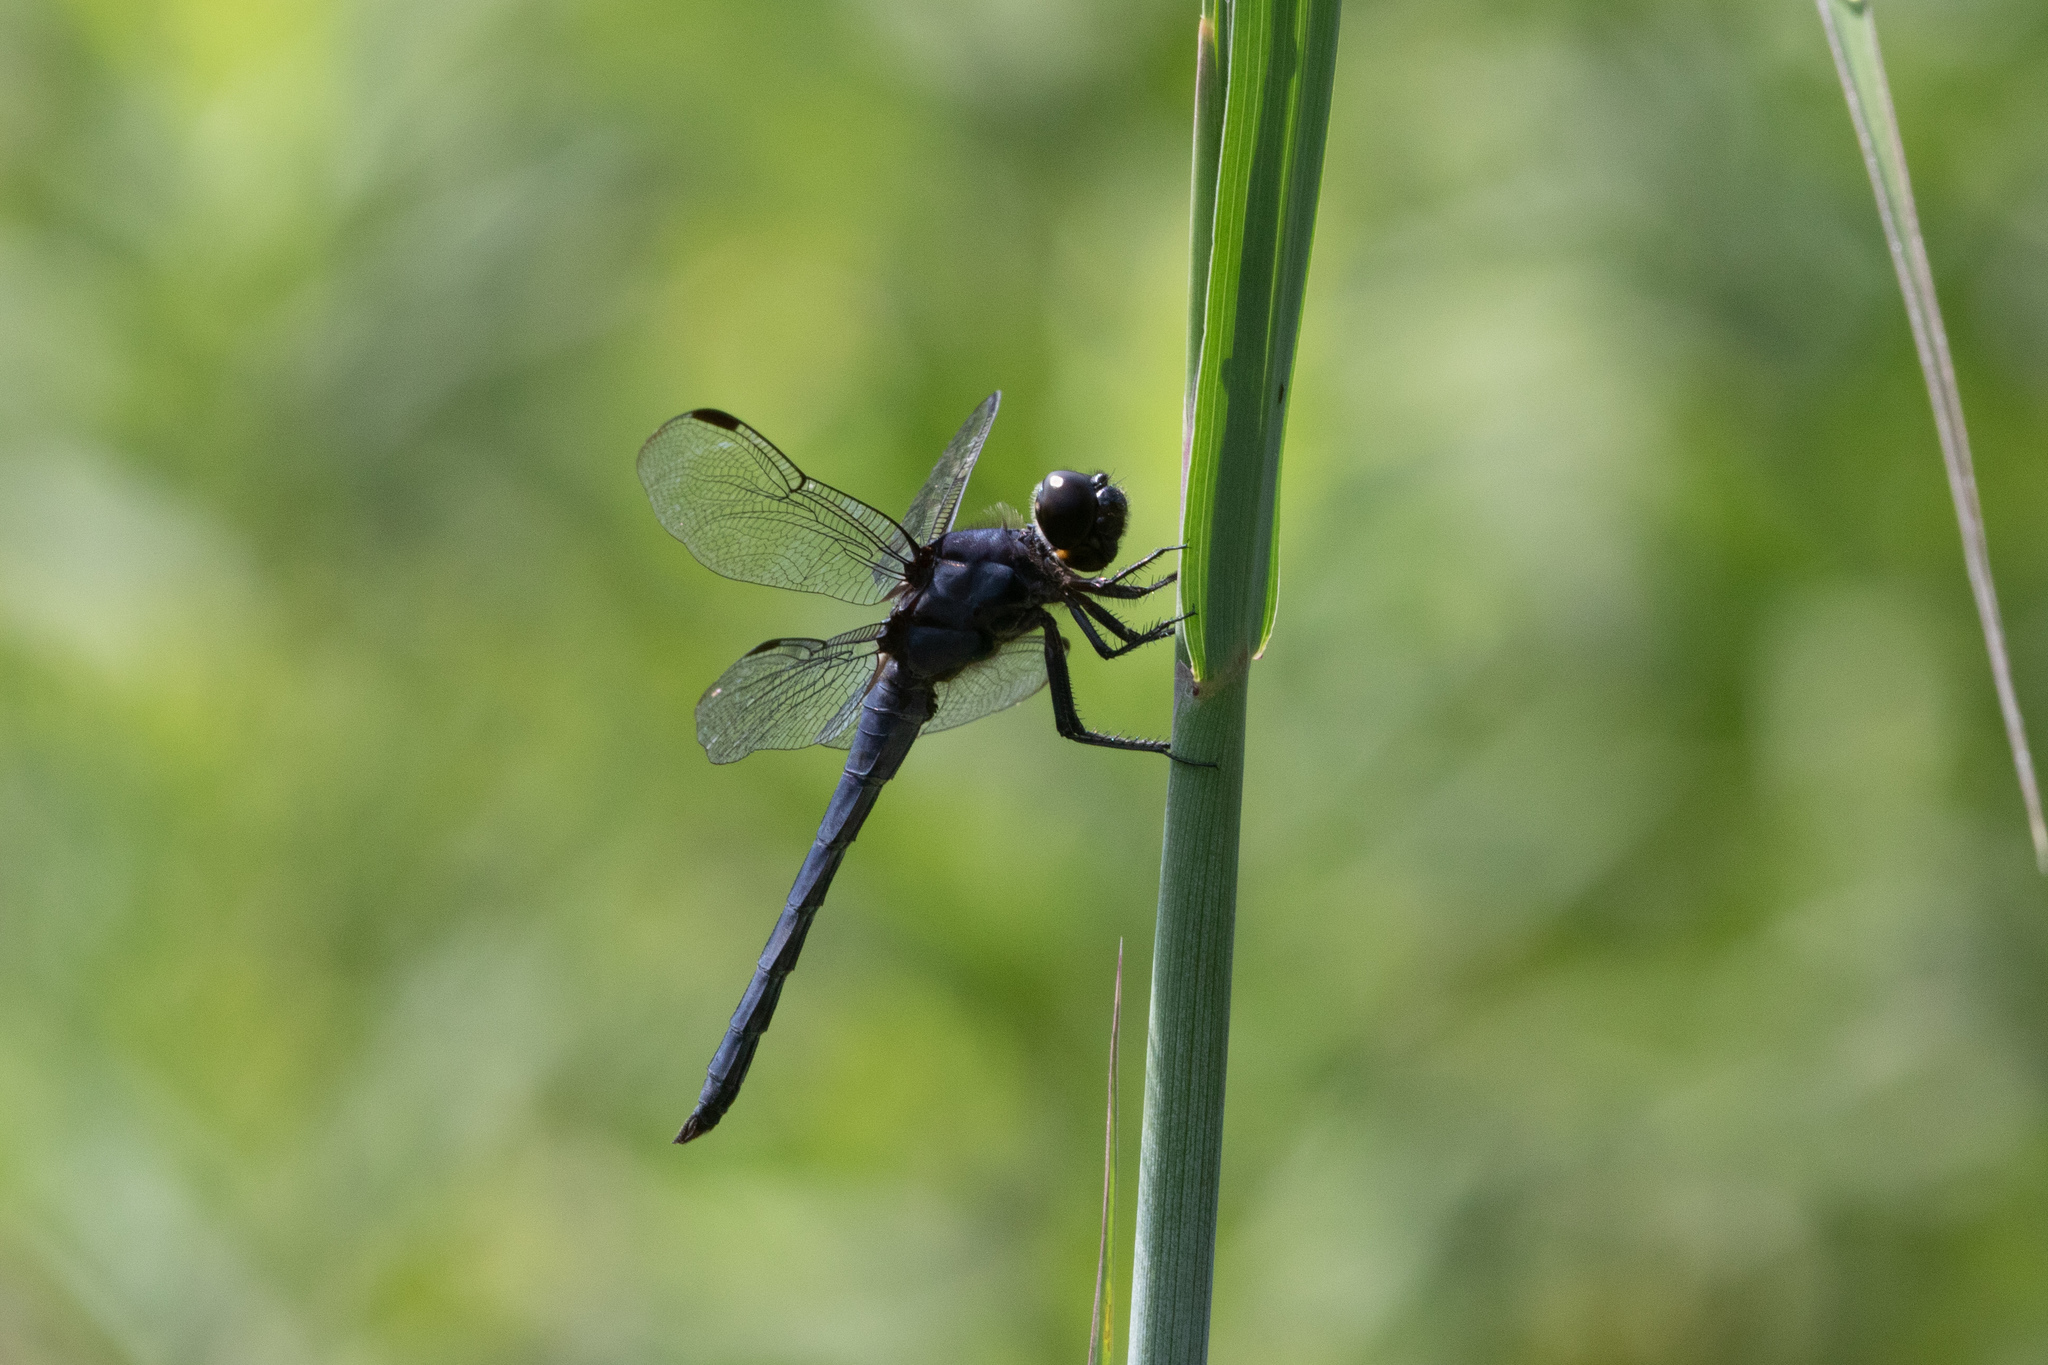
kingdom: Animalia
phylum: Arthropoda
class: Insecta
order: Odonata
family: Libellulidae
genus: Libellula
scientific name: Libellula incesta
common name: Slaty skimmer
